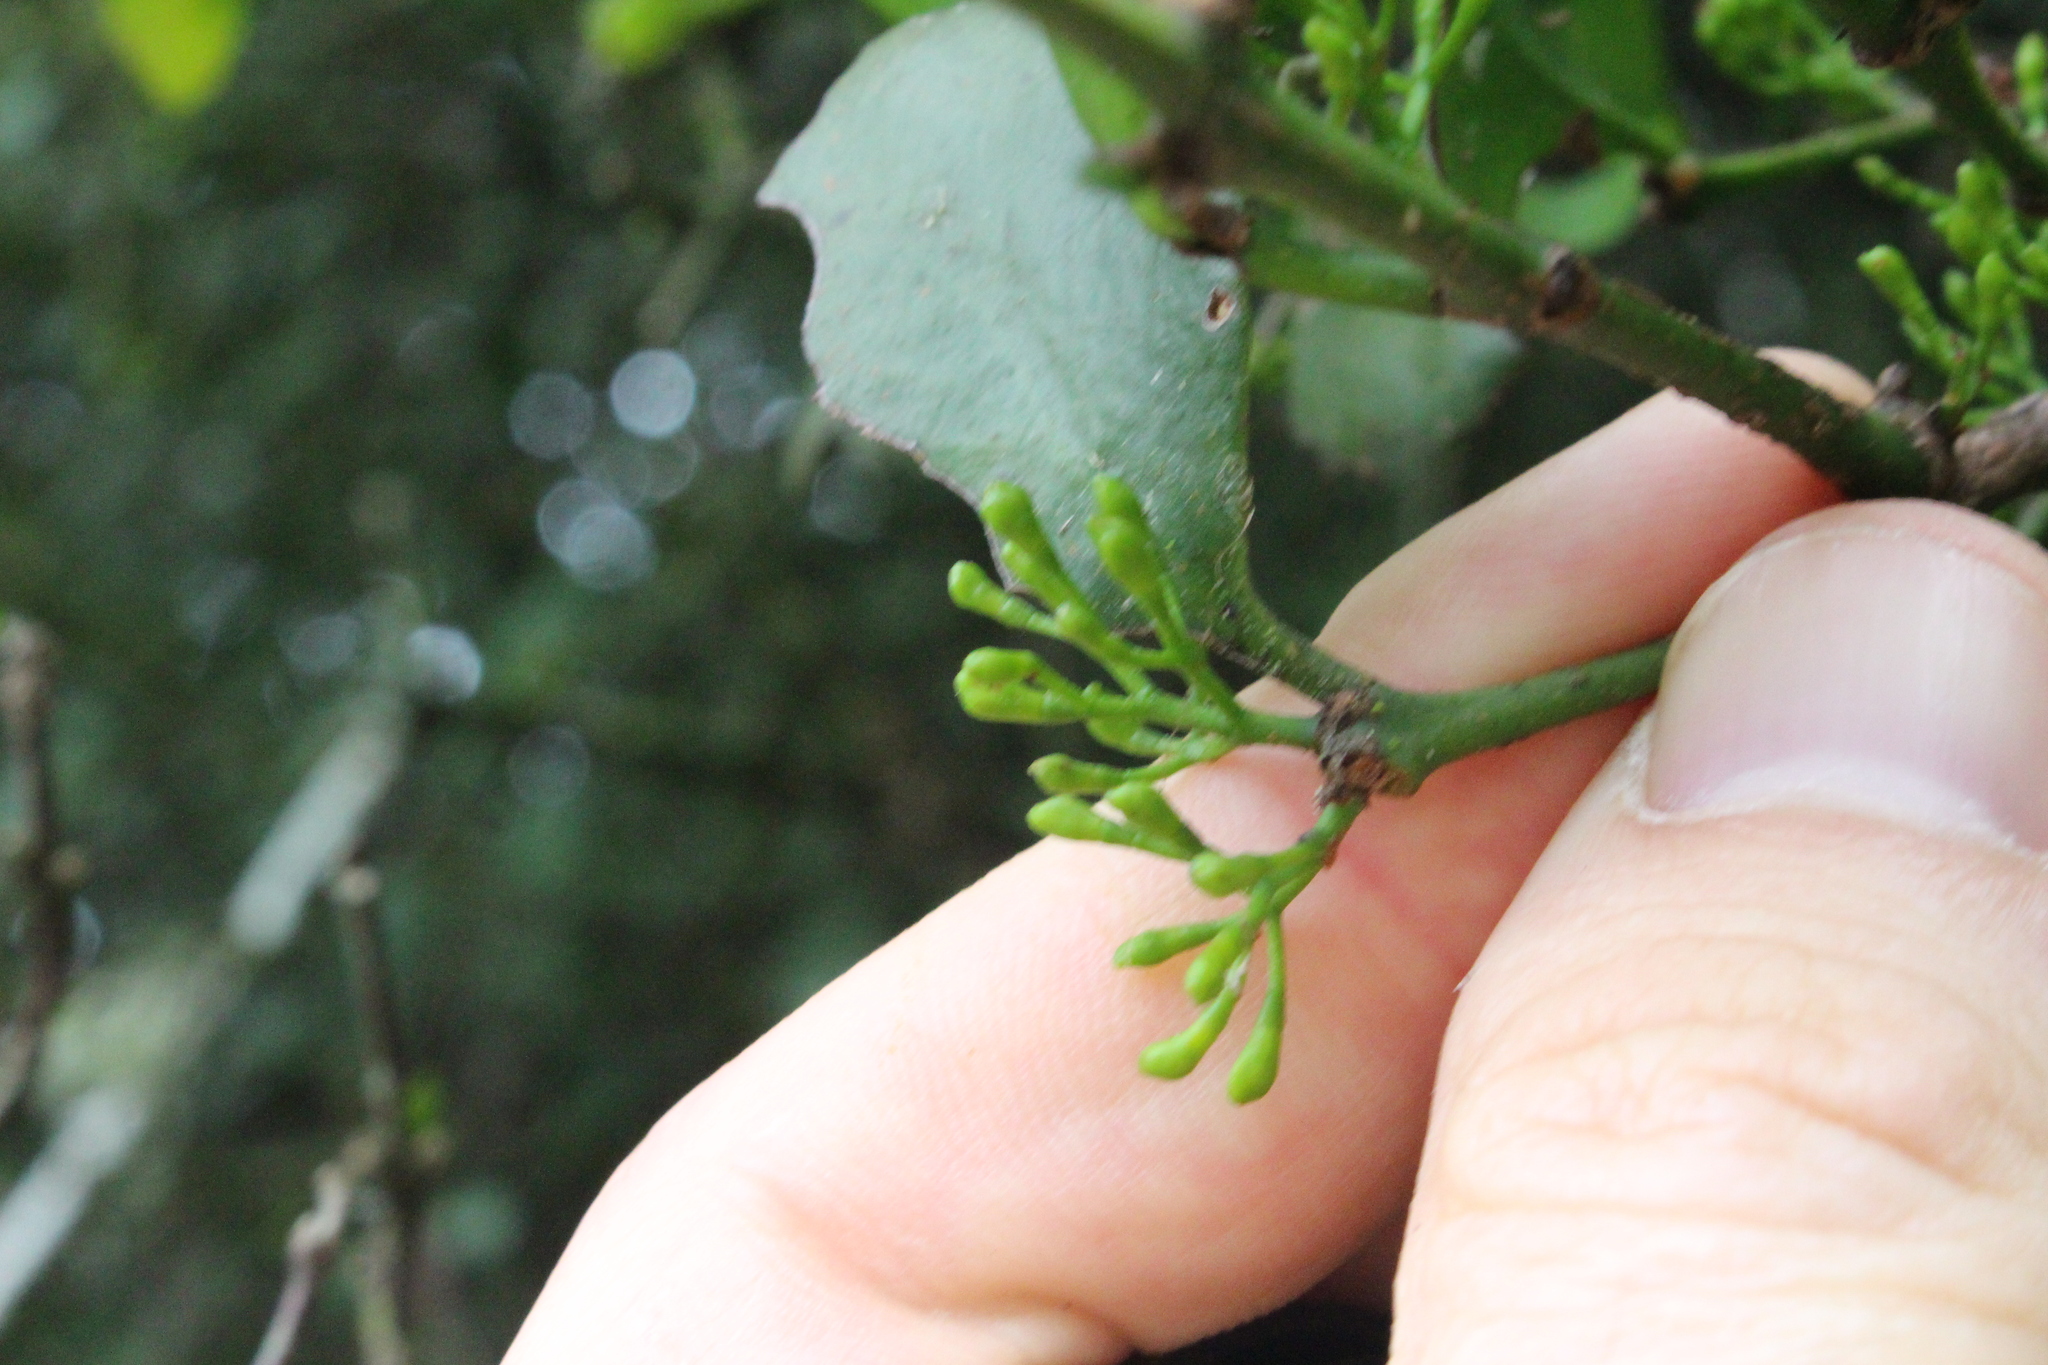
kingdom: Plantae
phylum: Tracheophyta
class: Magnoliopsida
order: Santalales
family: Loranthaceae
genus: Ileostylus
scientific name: Ileostylus micranthus
